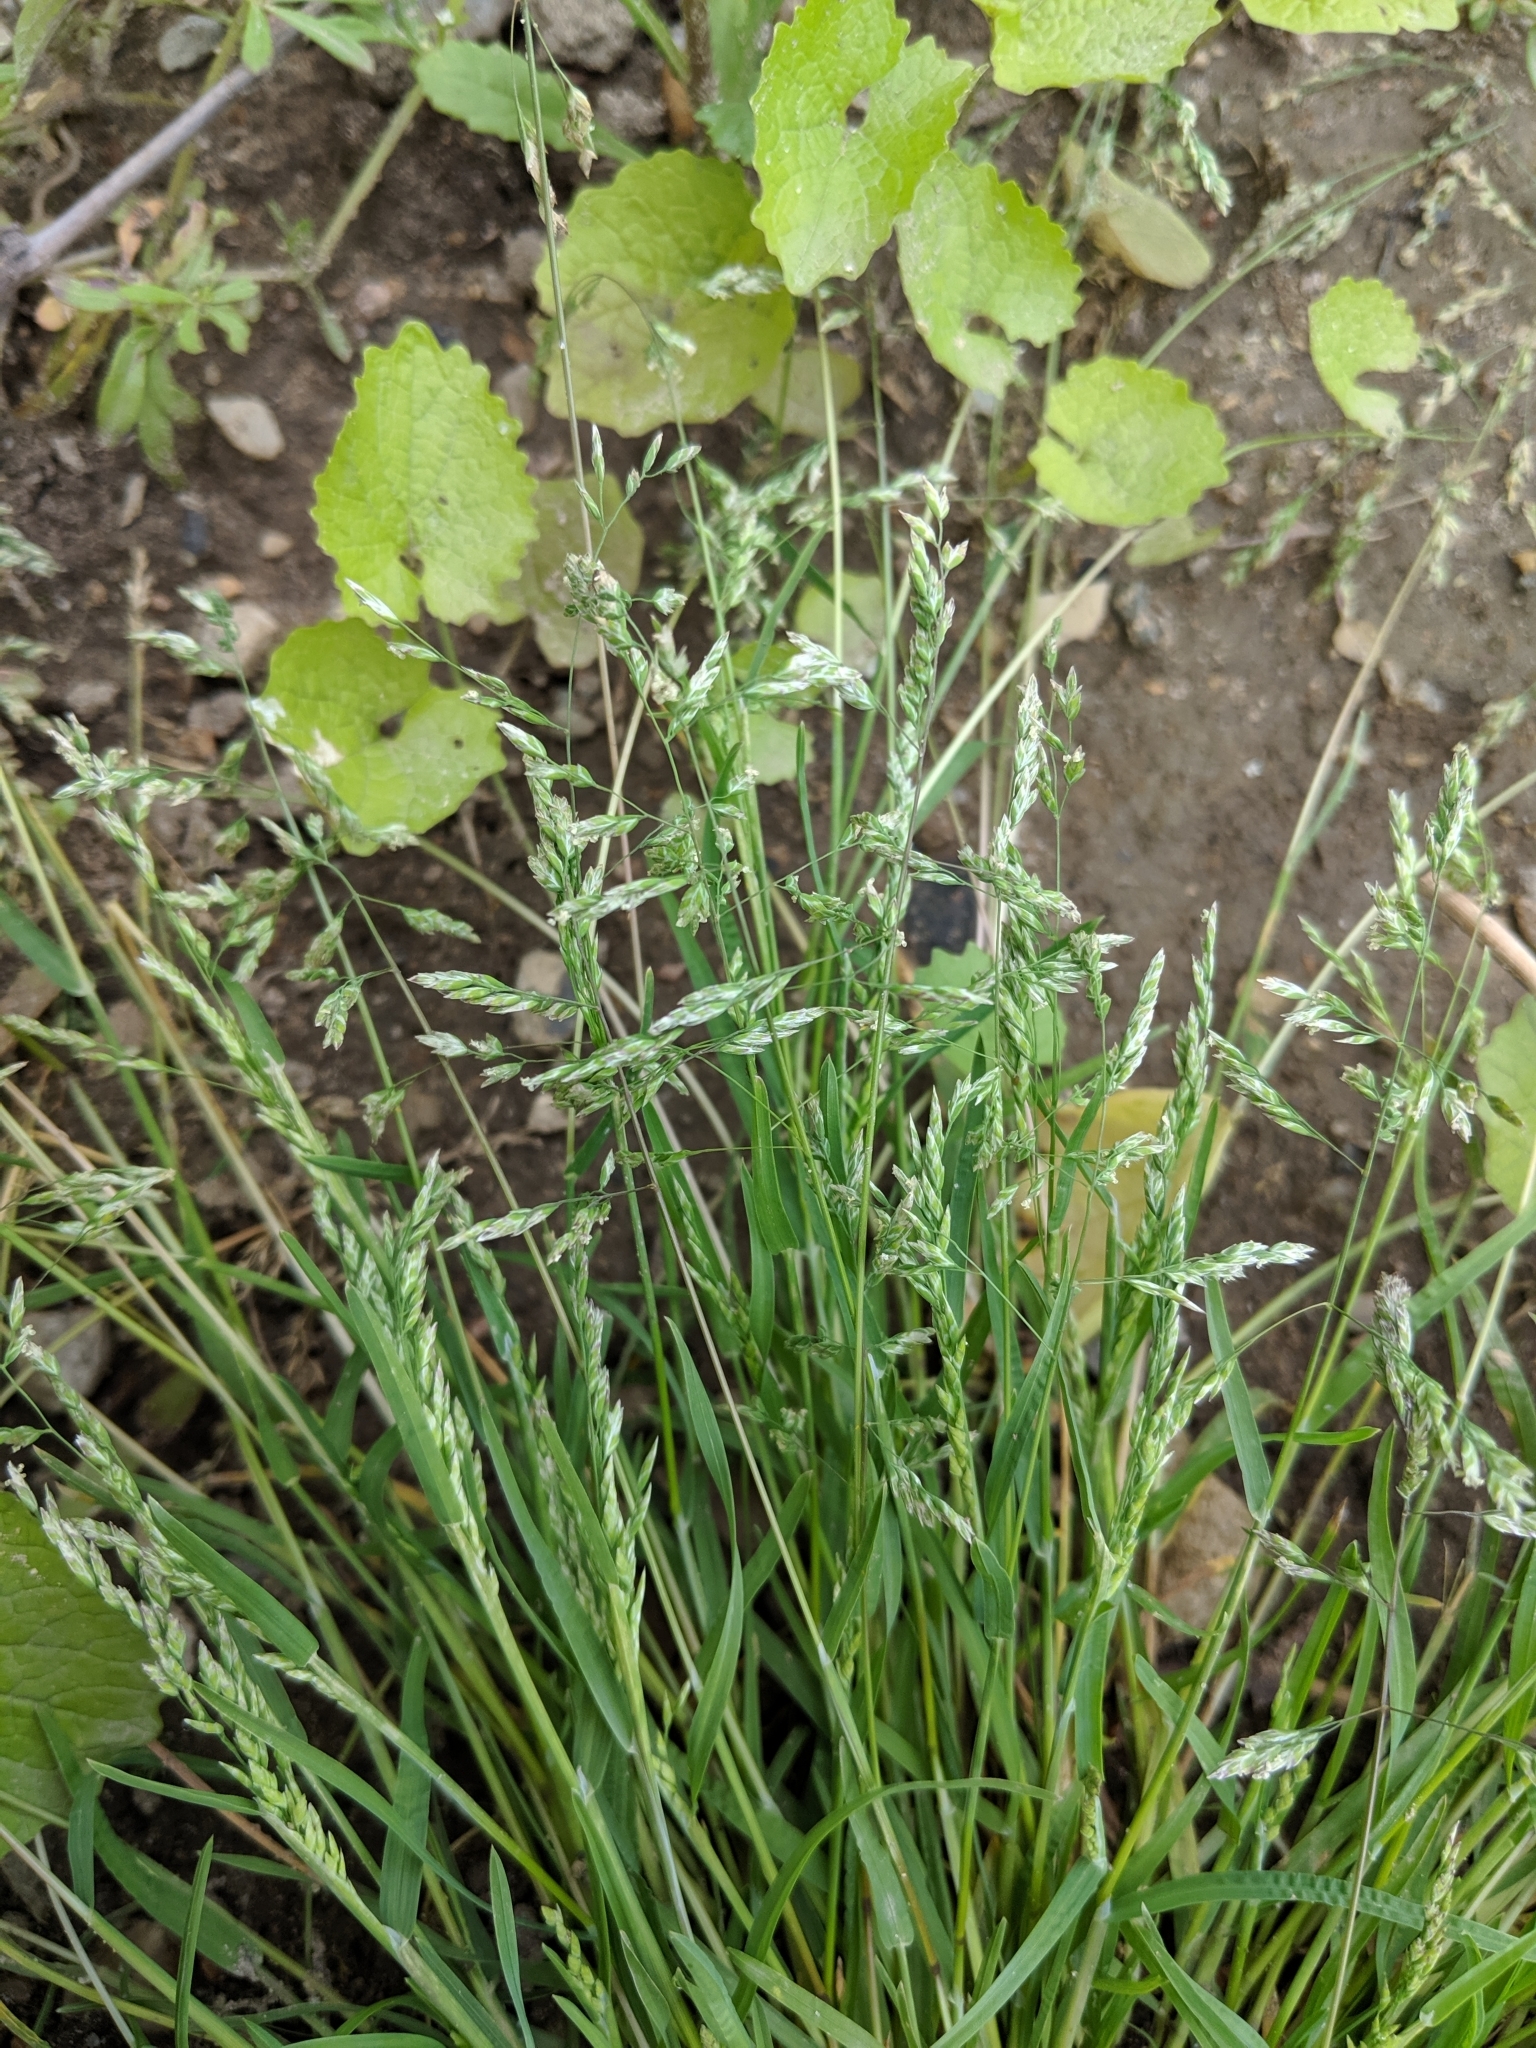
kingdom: Plantae
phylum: Tracheophyta
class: Liliopsida
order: Poales
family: Poaceae
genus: Poa
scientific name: Poa annua
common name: Annual bluegrass
